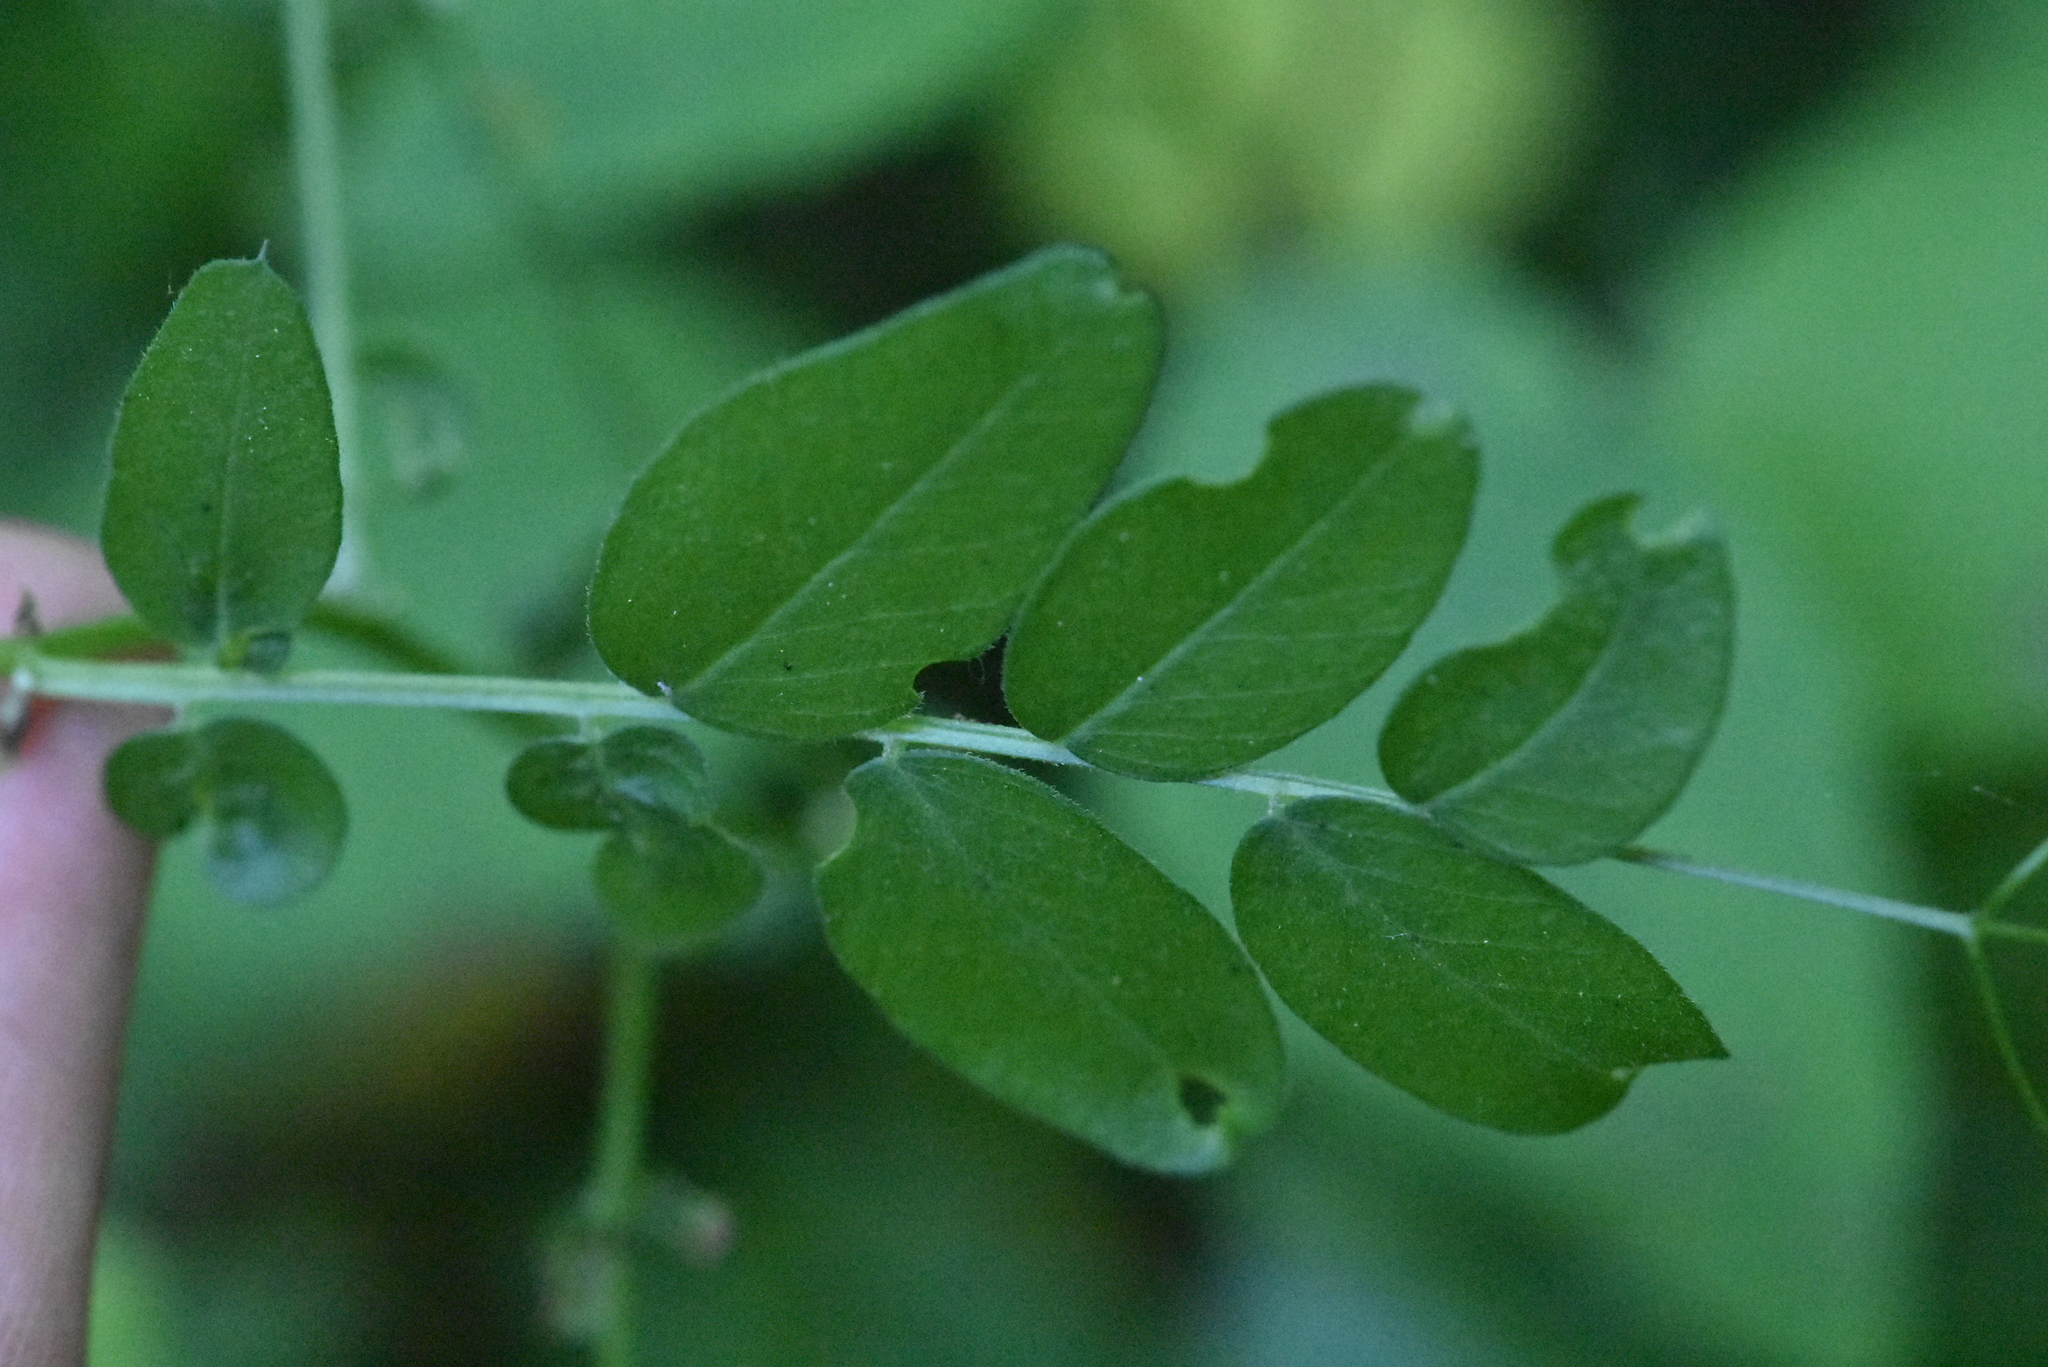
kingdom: Plantae
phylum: Tracheophyta
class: Magnoliopsida
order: Fabales
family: Fabaceae
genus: Vicia
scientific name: Vicia sepium
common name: Bush vetch
